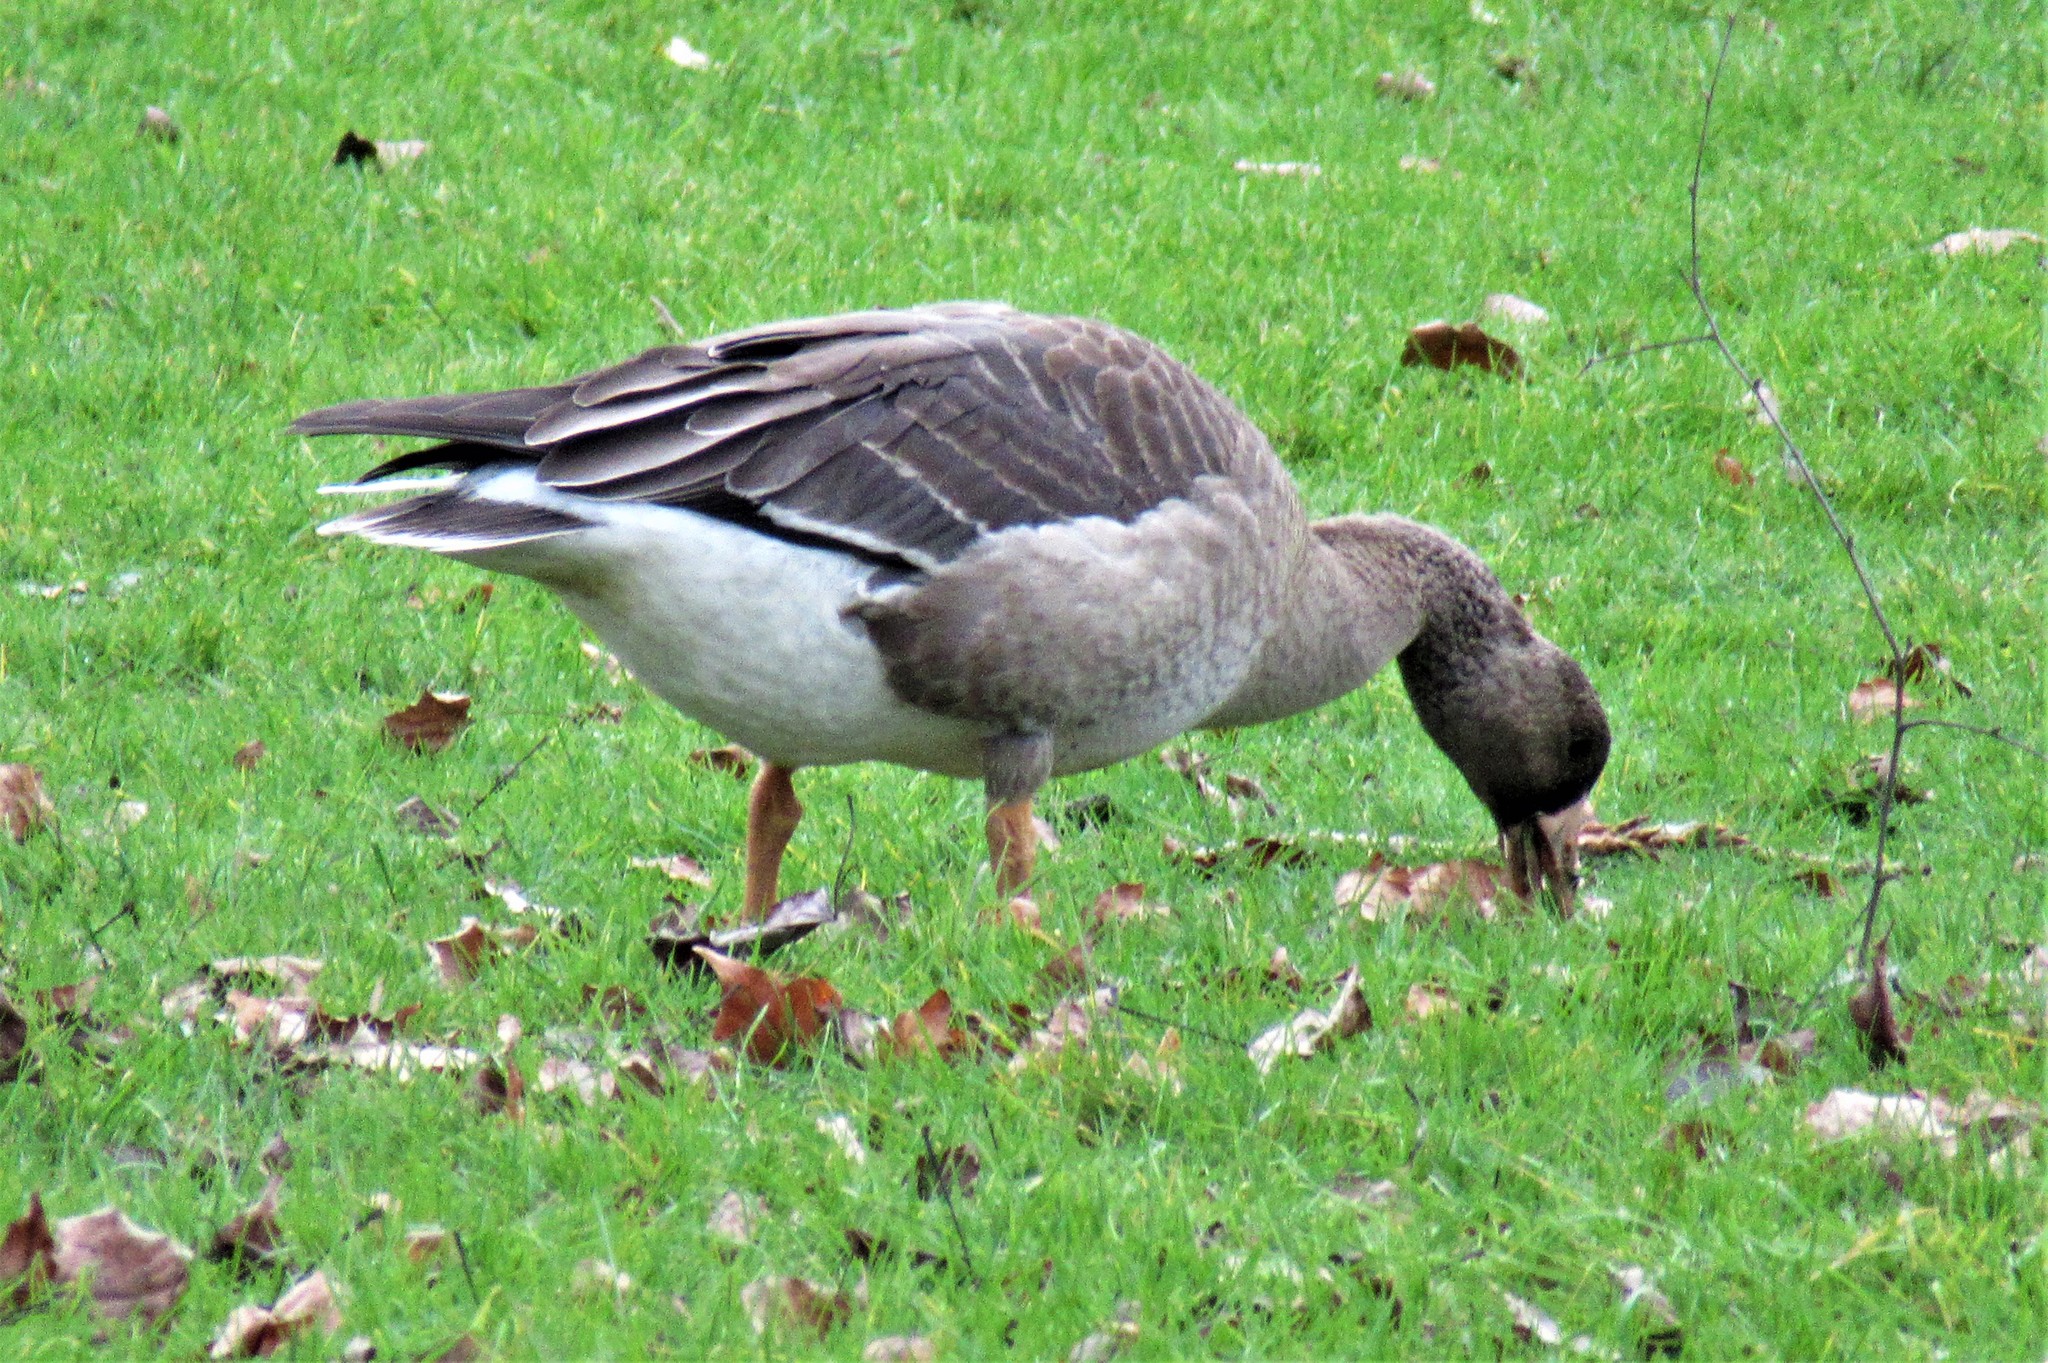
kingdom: Animalia
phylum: Chordata
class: Aves
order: Anseriformes
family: Anatidae
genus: Anser
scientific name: Anser albifrons
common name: Greater white-fronted goose
